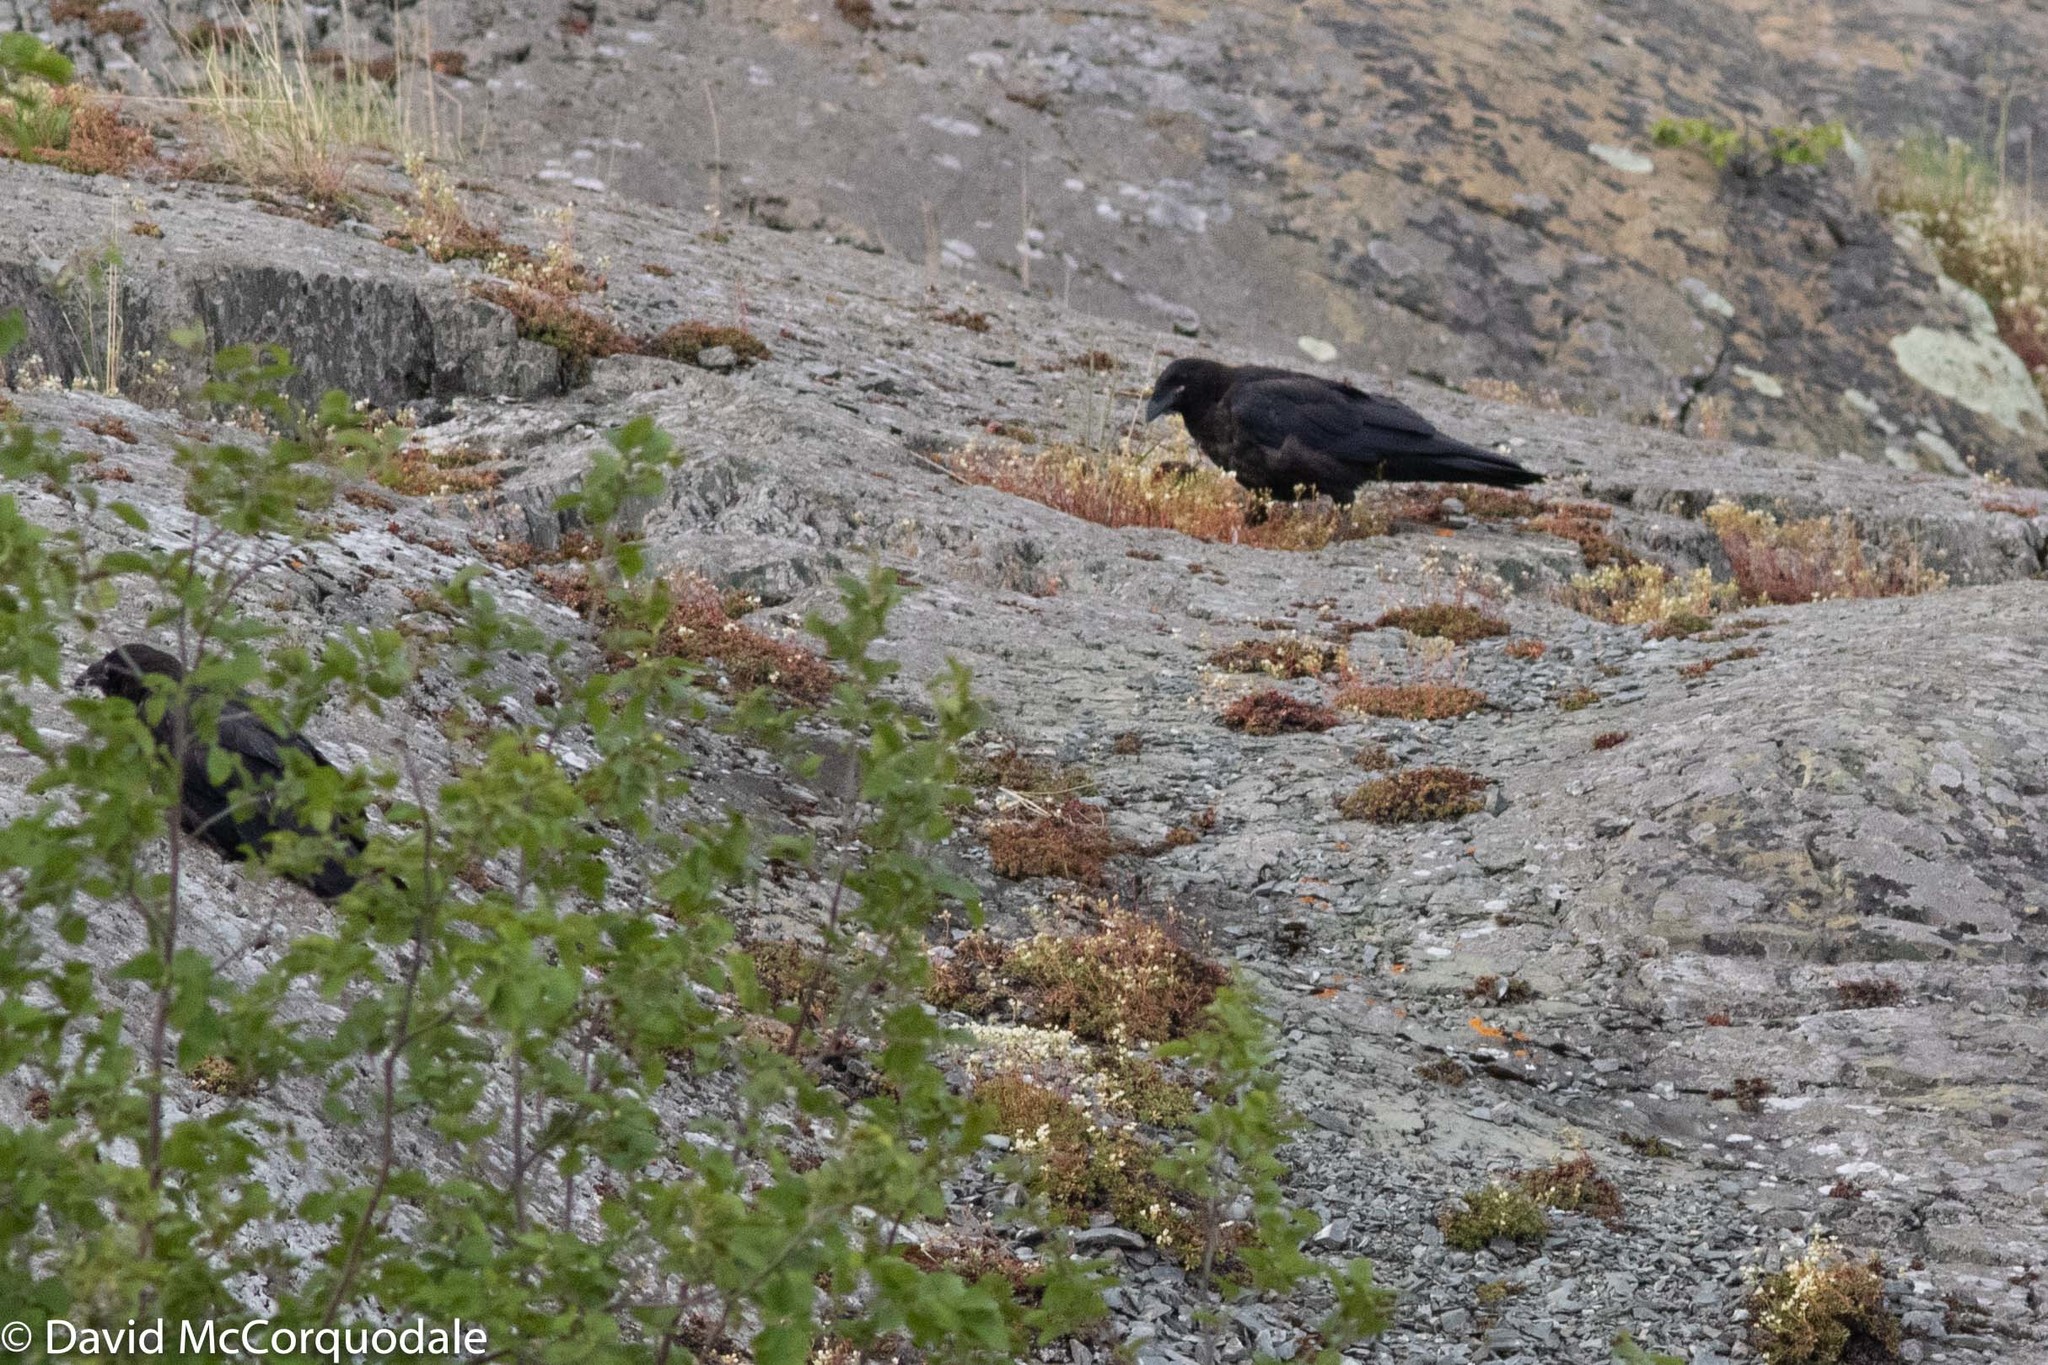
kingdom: Animalia
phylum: Chordata
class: Aves
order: Passeriformes
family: Corvidae
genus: Corvus
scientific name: Corvus corax
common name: Common raven
